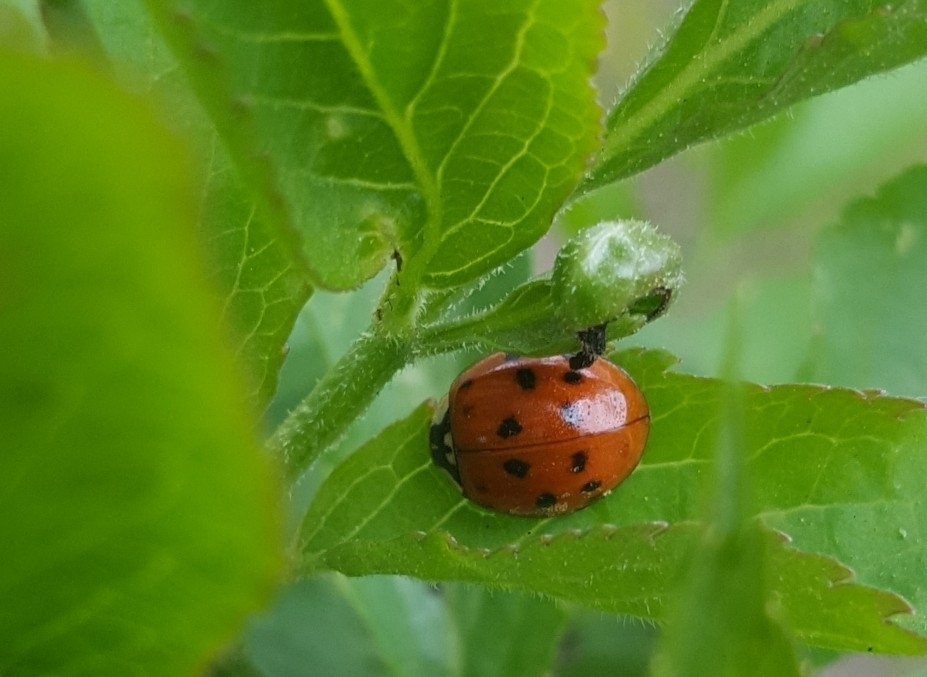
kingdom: Animalia
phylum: Arthropoda
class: Insecta
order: Coleoptera
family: Coccinellidae
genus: Harmonia
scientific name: Harmonia axyridis
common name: Harlequin ladybird
